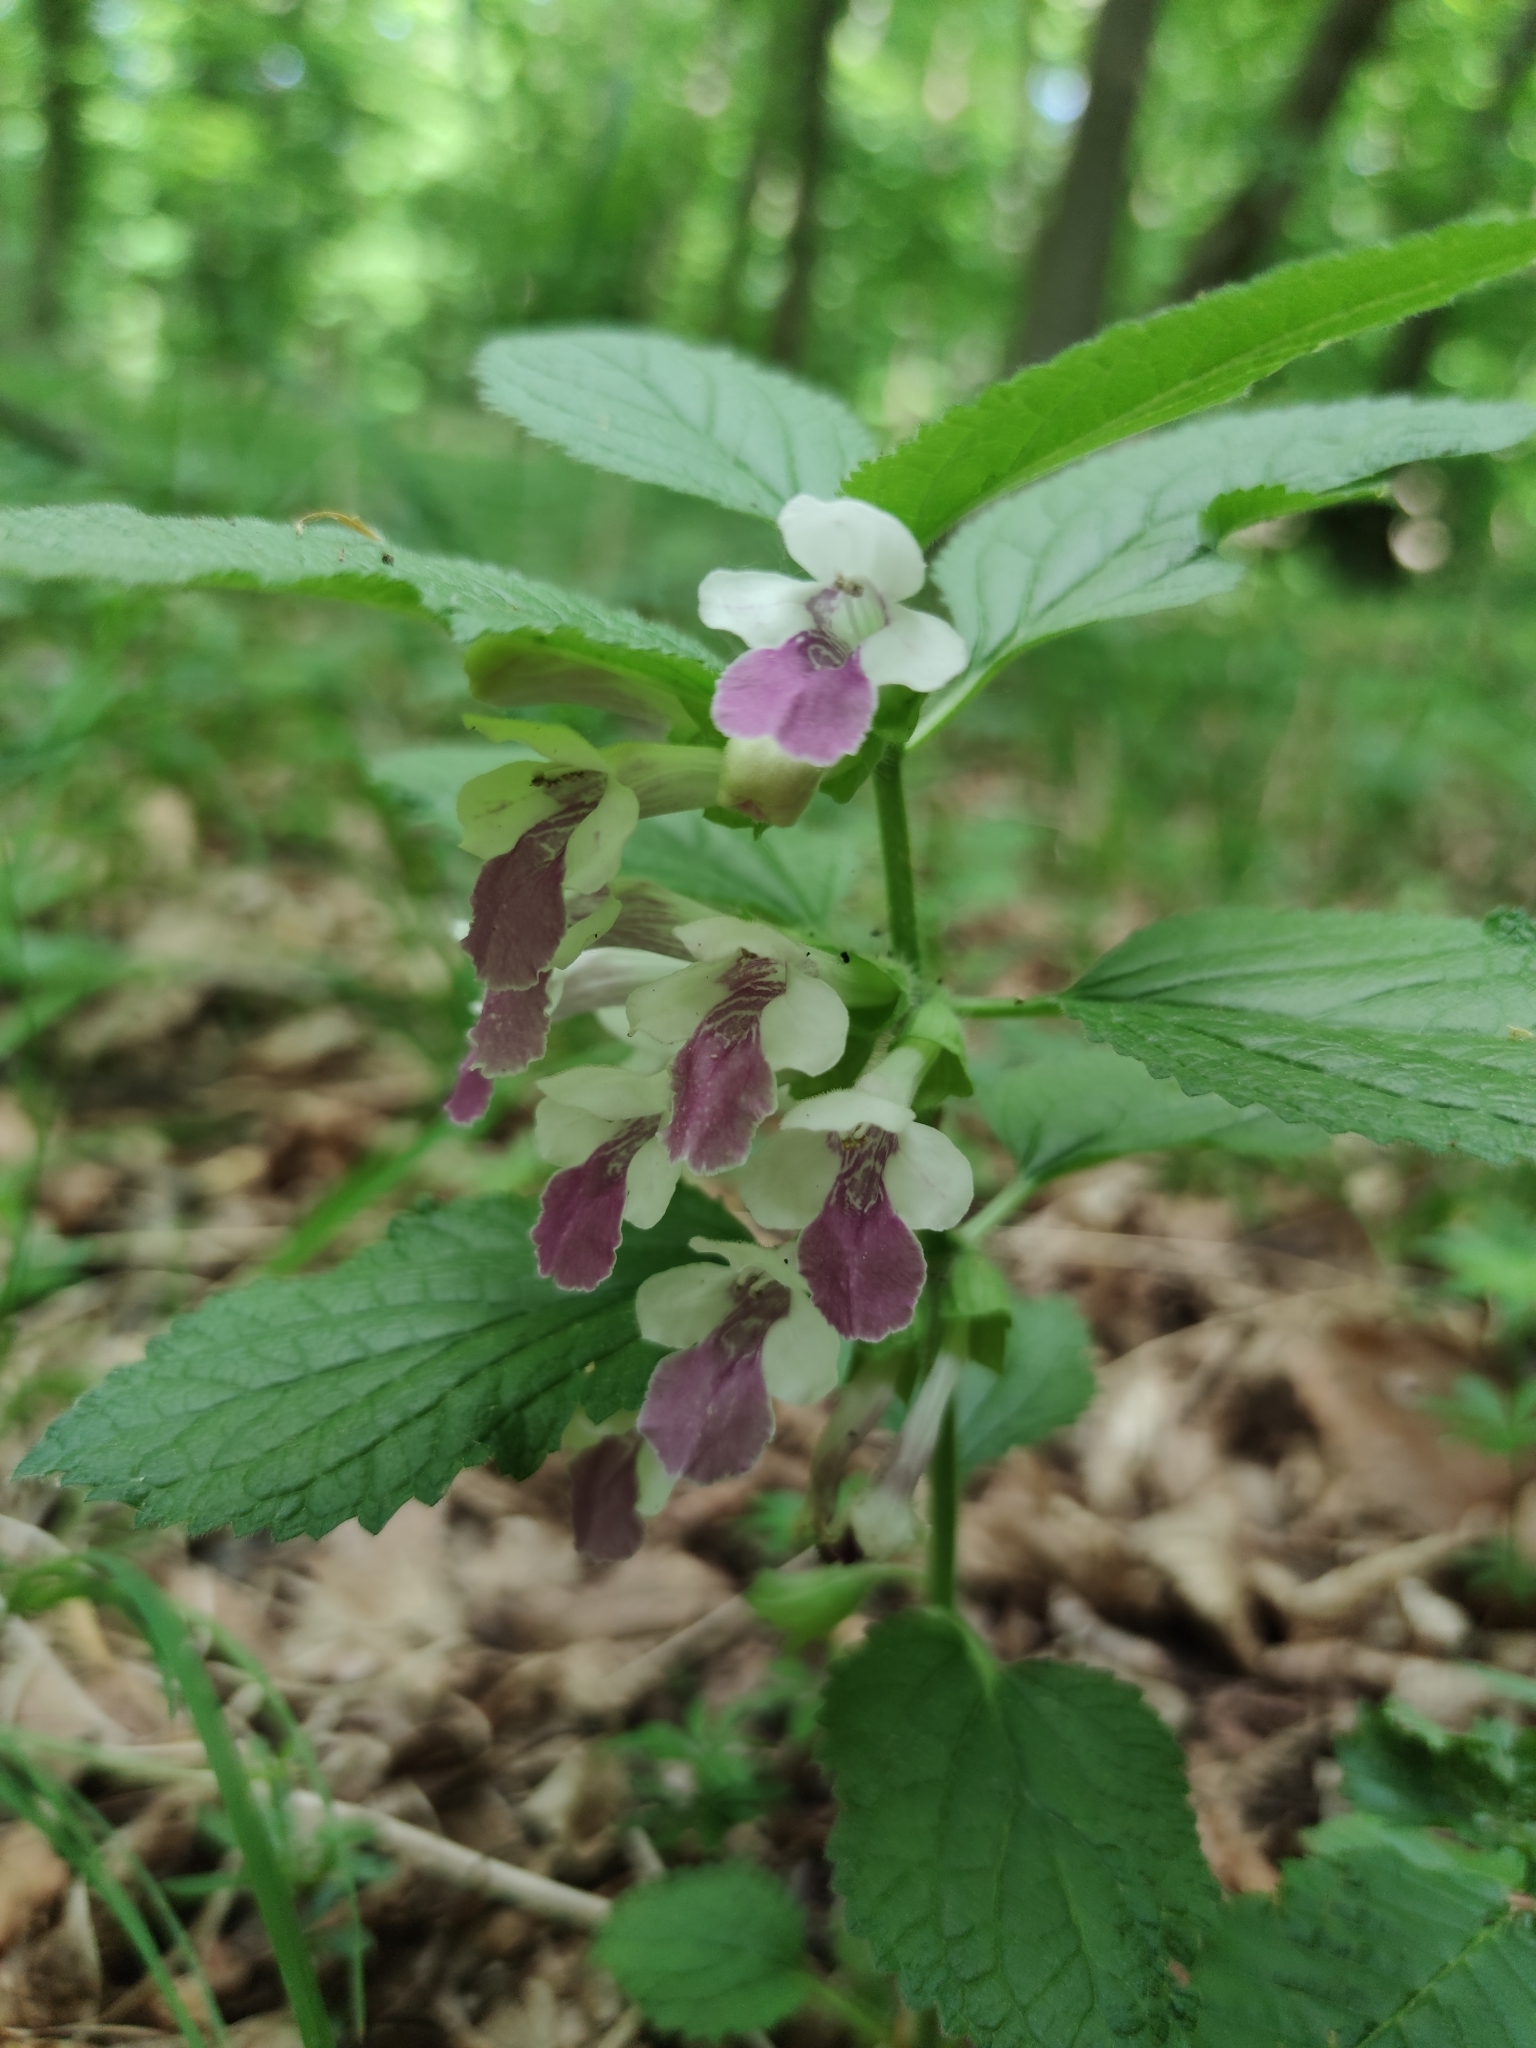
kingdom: Plantae
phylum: Tracheophyta
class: Magnoliopsida
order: Lamiales
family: Lamiaceae
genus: Melittis
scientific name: Melittis melissophyllum
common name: Bastard balm
